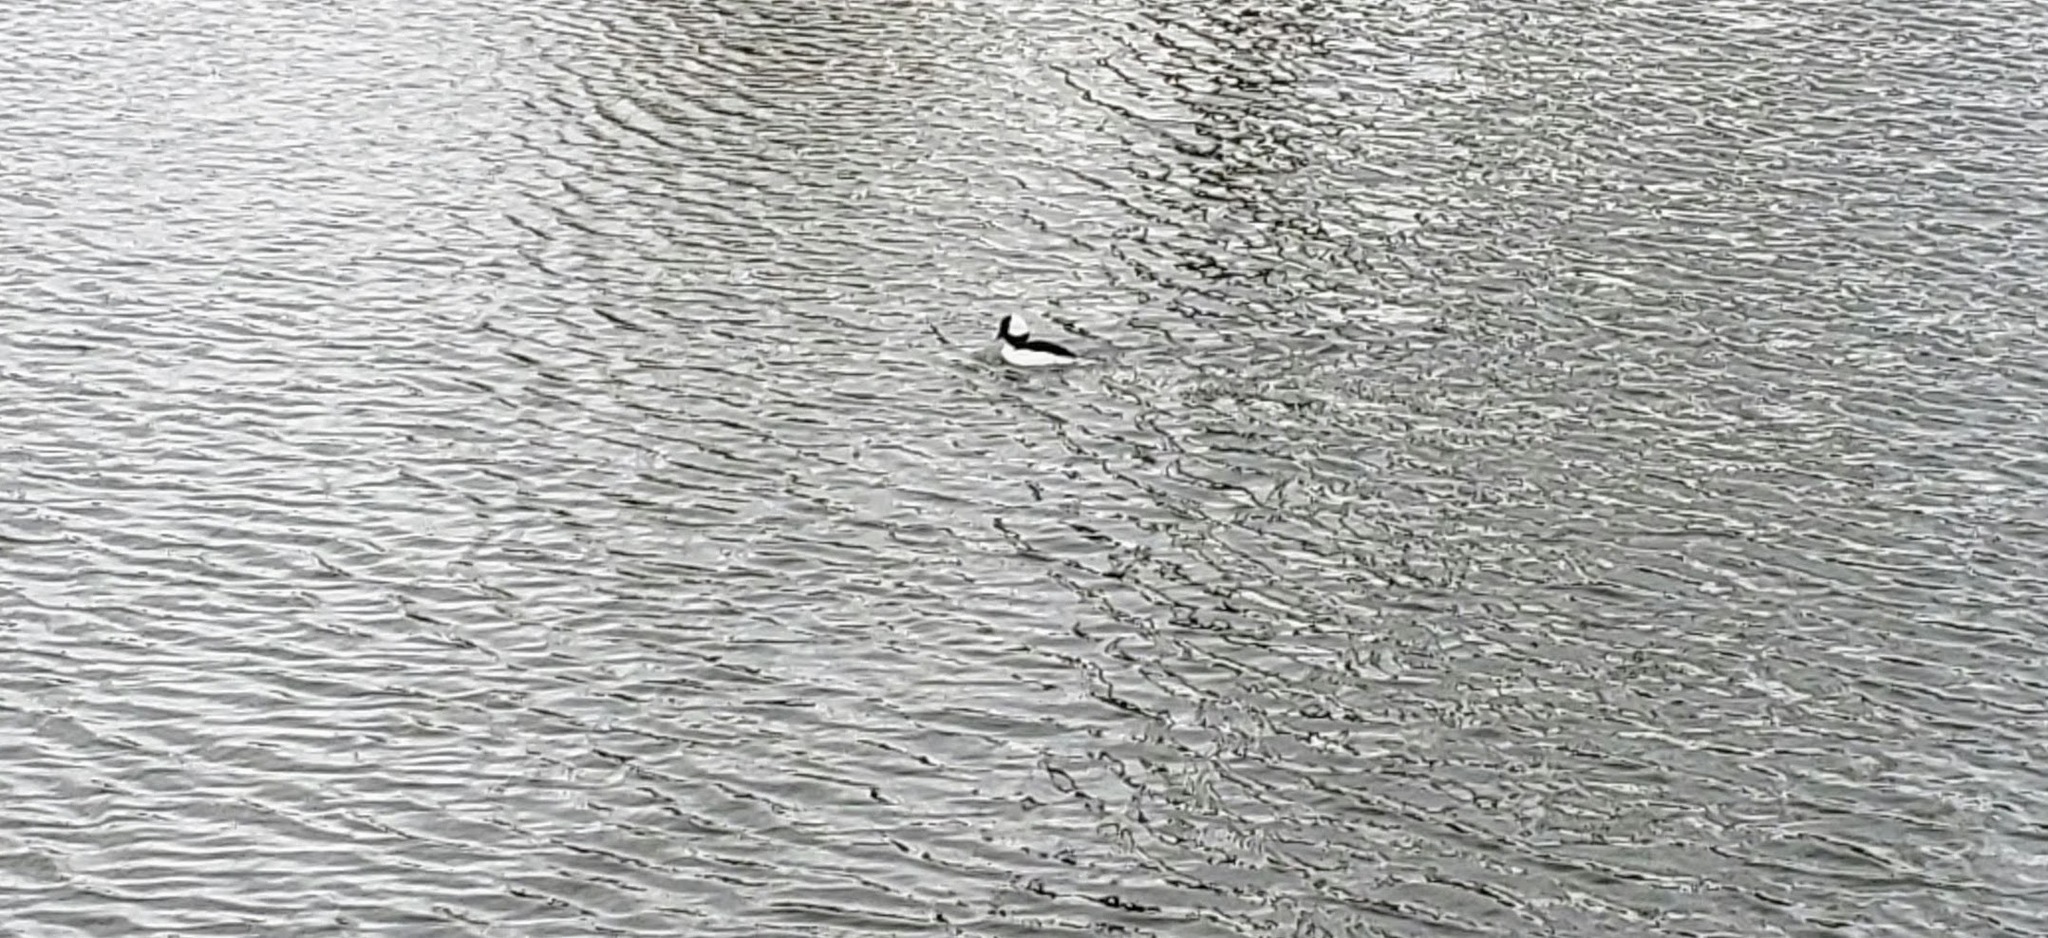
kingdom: Animalia
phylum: Chordata
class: Aves
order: Anseriformes
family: Anatidae
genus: Bucephala
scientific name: Bucephala albeola
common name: Bufflehead
